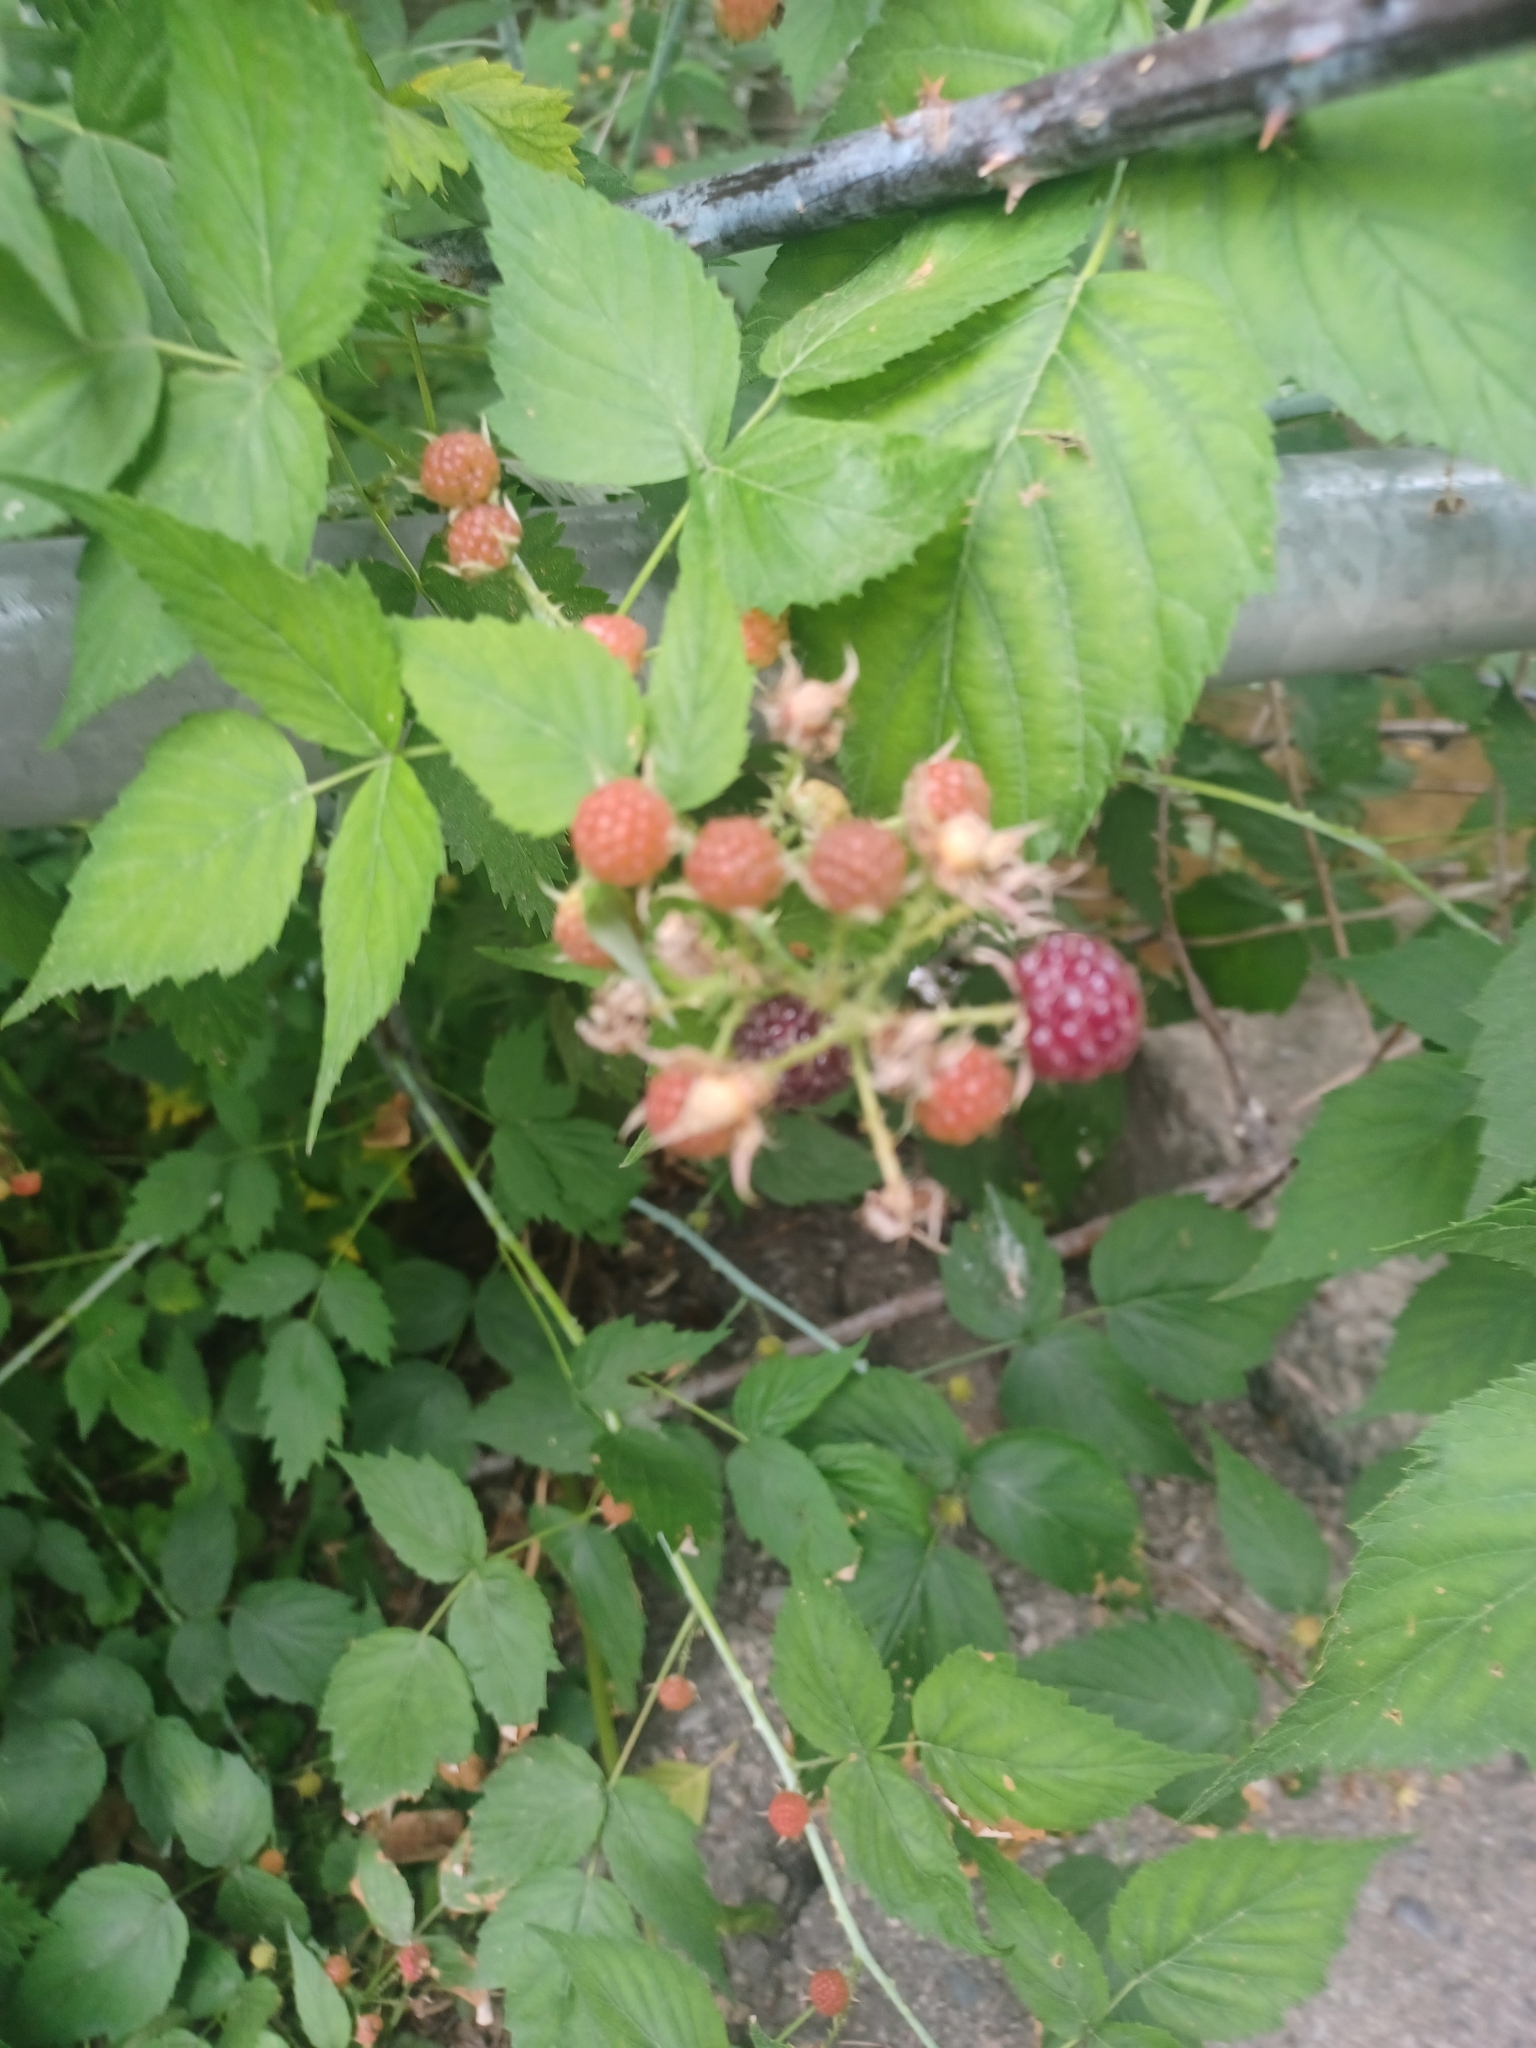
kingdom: Plantae
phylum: Tracheophyta
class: Magnoliopsida
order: Rosales
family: Rosaceae
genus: Rubus
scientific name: Rubus occidentalis
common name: Black raspberry
